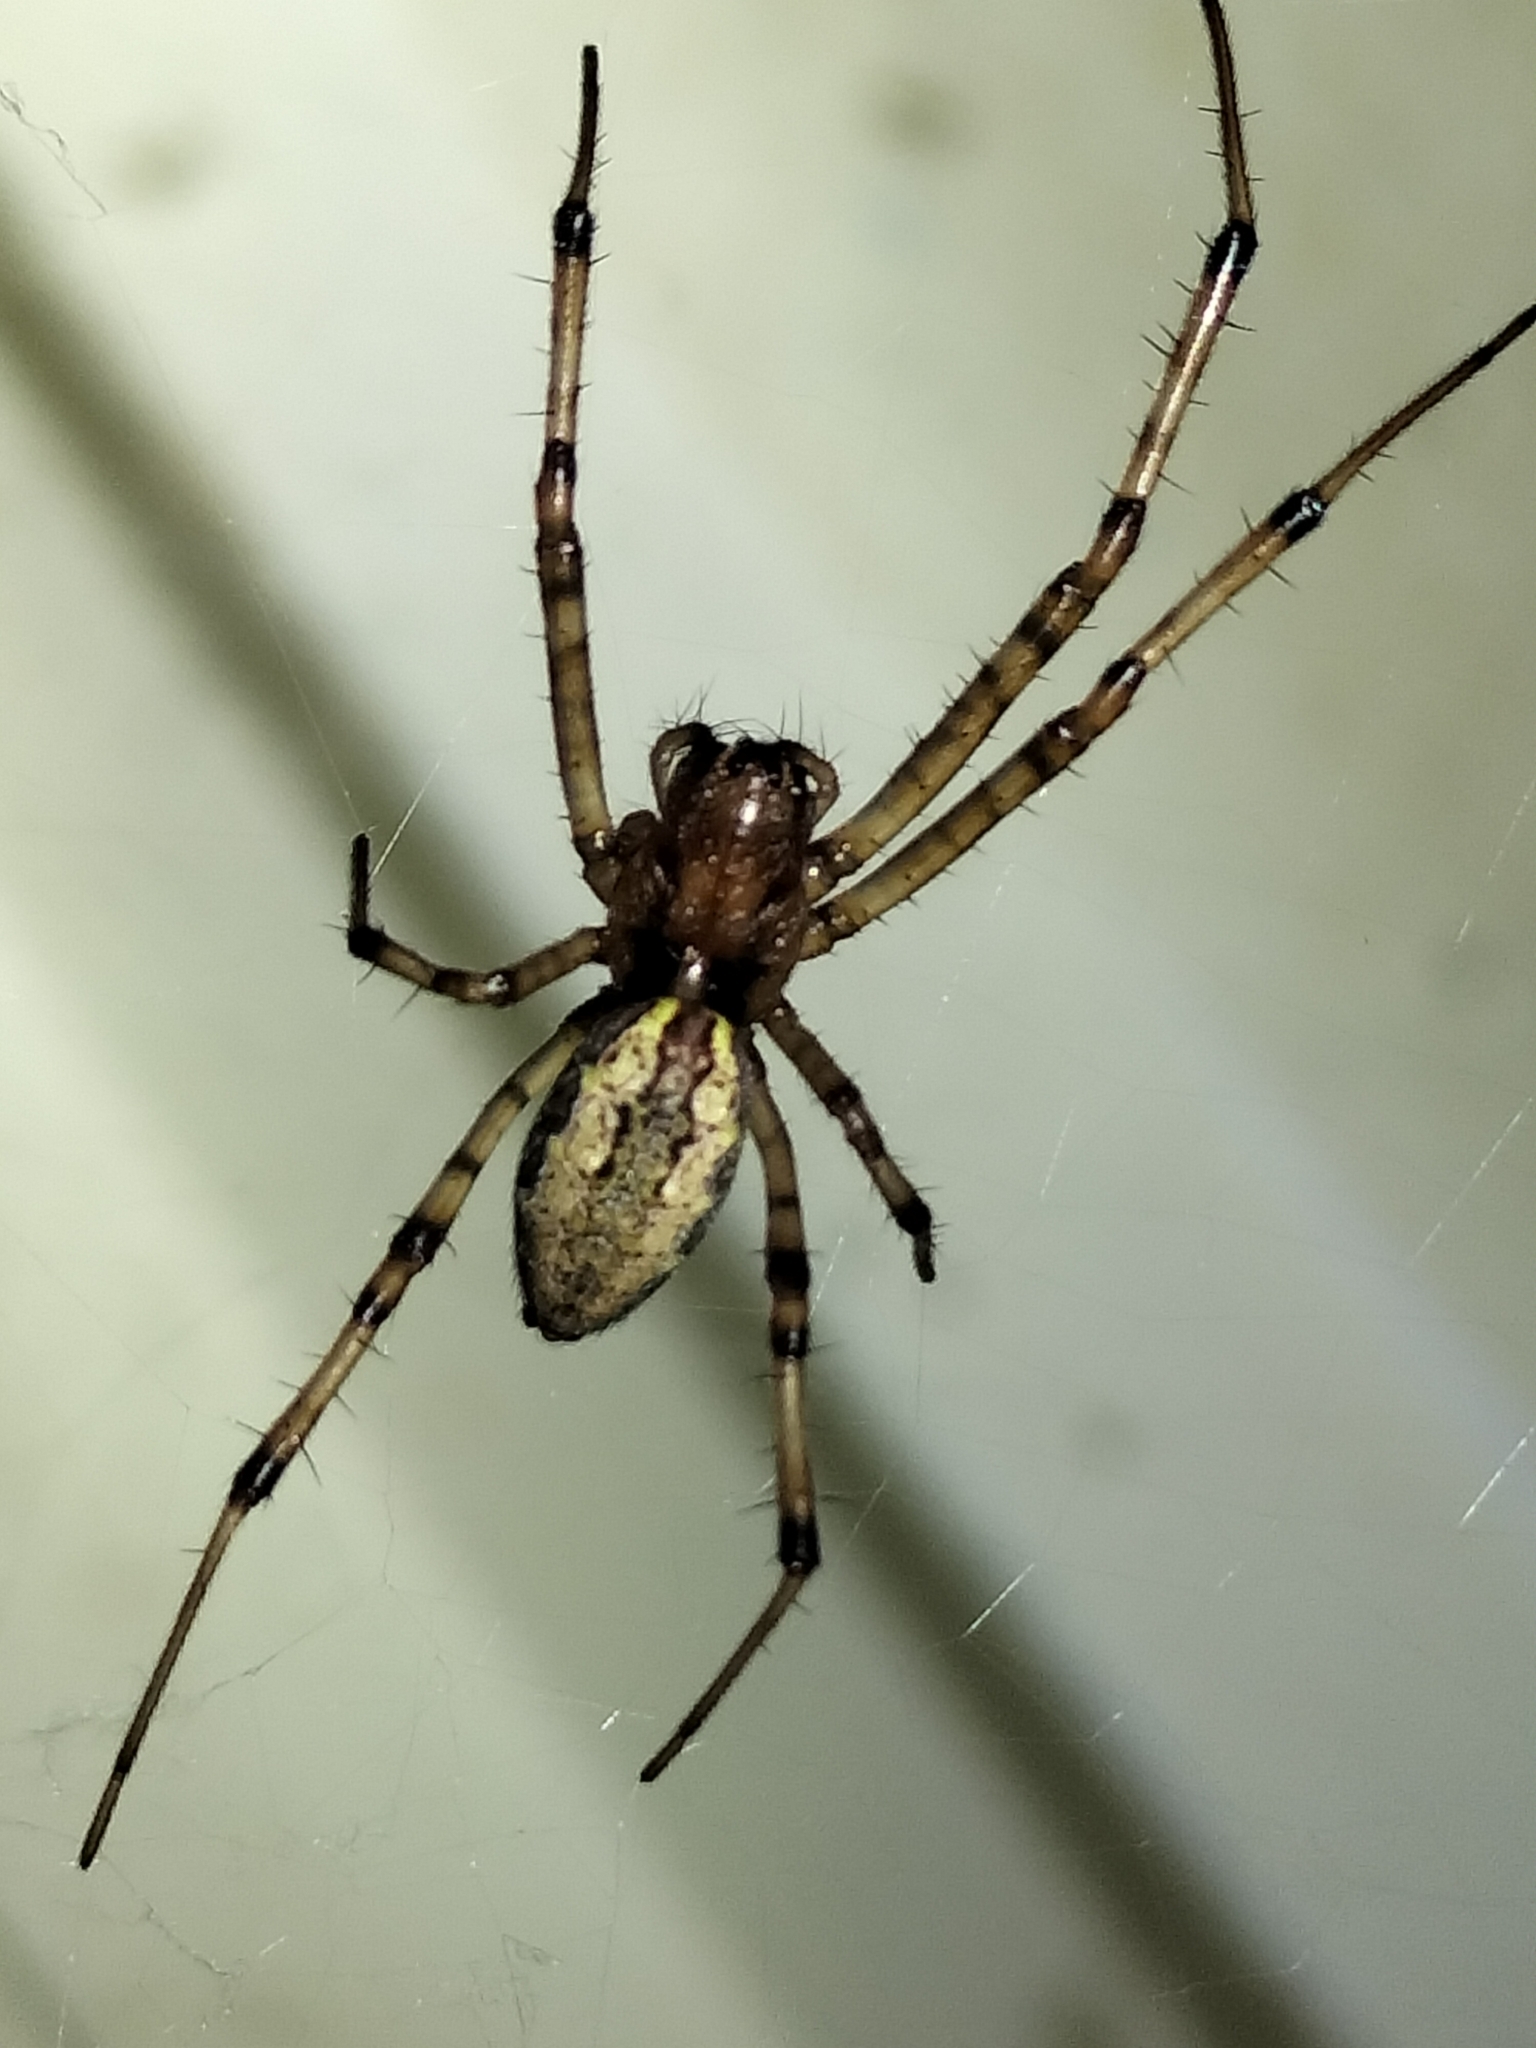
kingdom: Animalia
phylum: Arthropoda
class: Arachnida
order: Araneae
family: Araneidae
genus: Nephilengys
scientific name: Nephilengys papuana
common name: Papuan hermit spider
